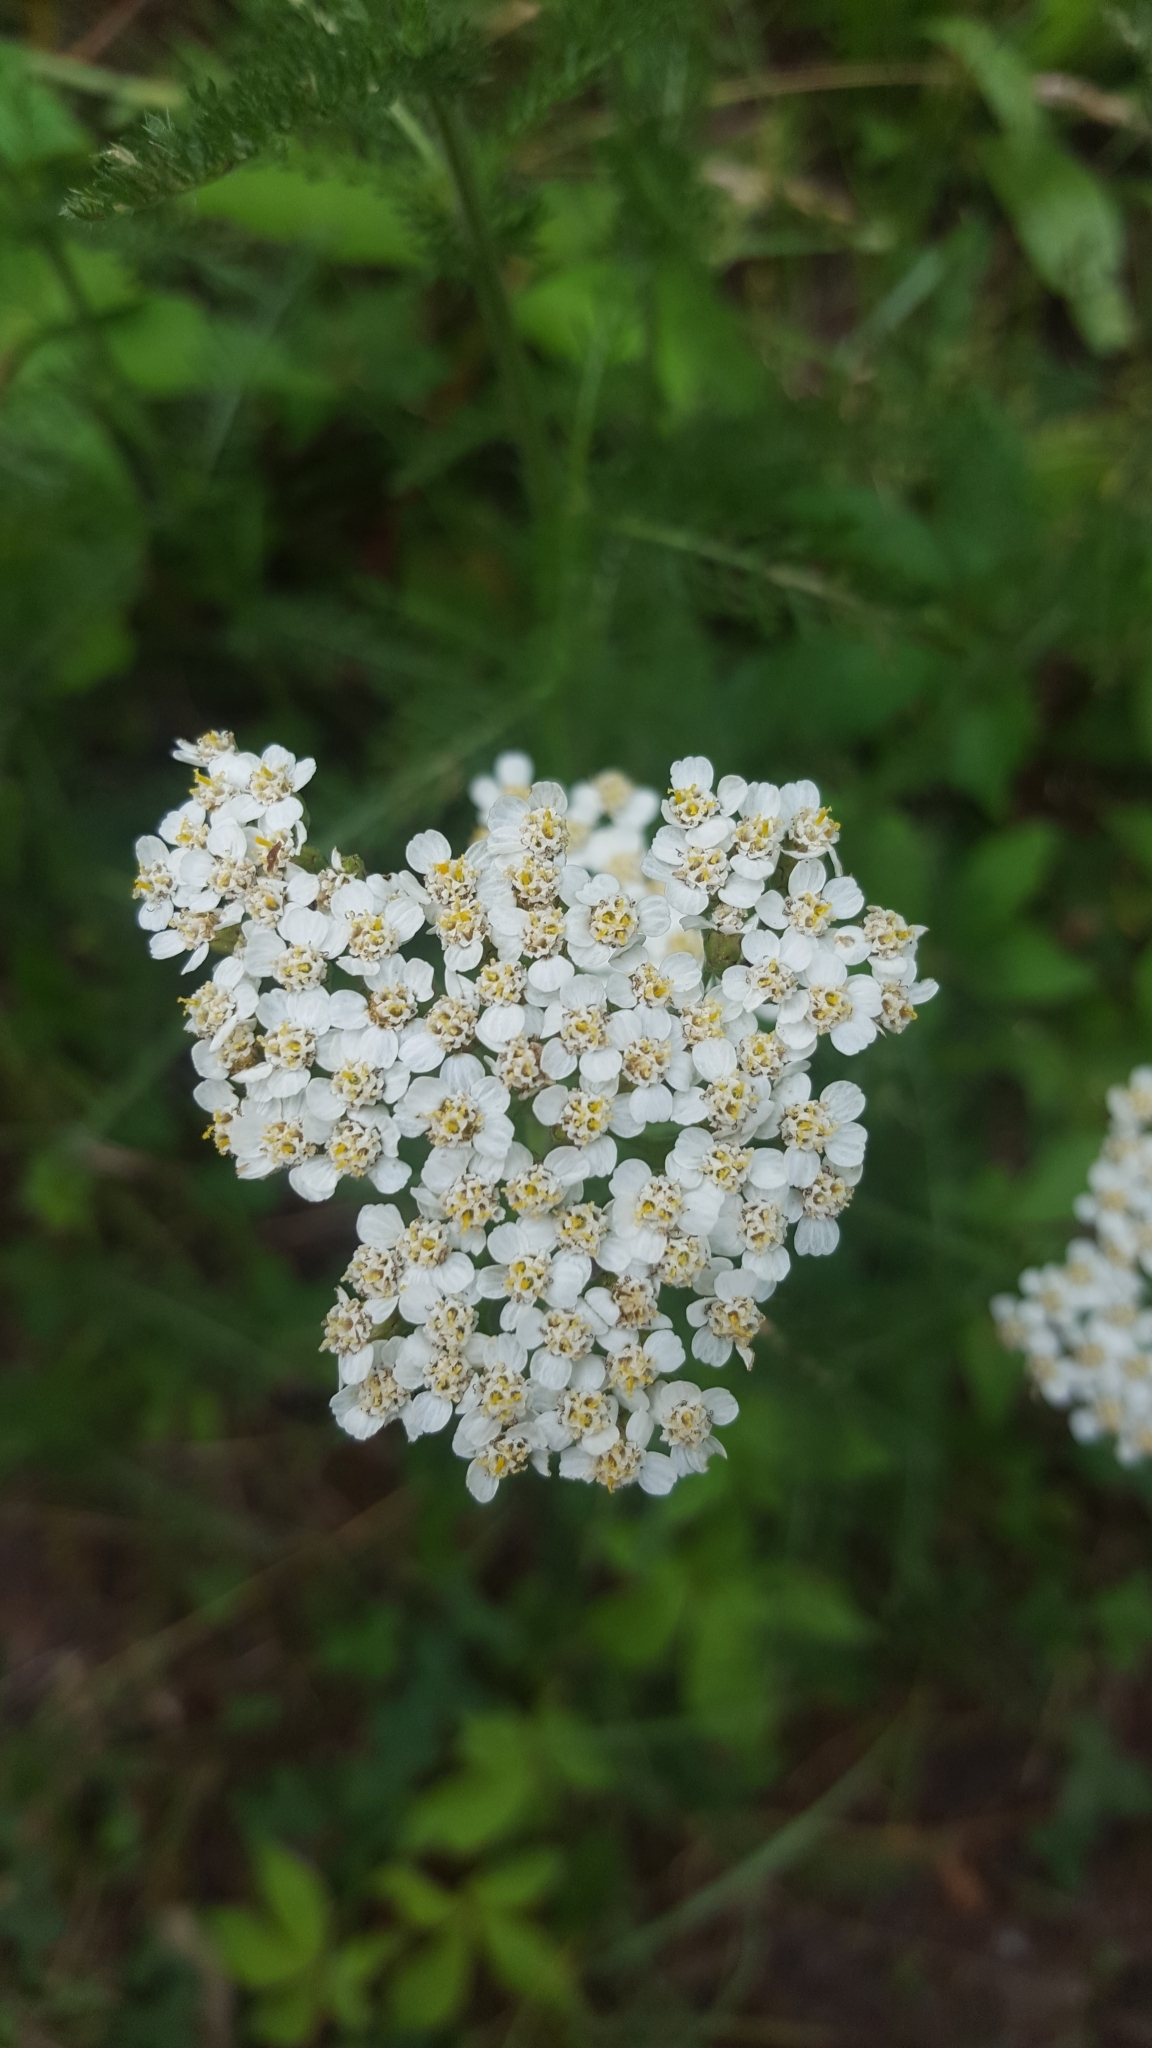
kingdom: Plantae
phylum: Tracheophyta
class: Magnoliopsida
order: Asterales
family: Asteraceae
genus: Achillea
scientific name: Achillea millefolium
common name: Yarrow
